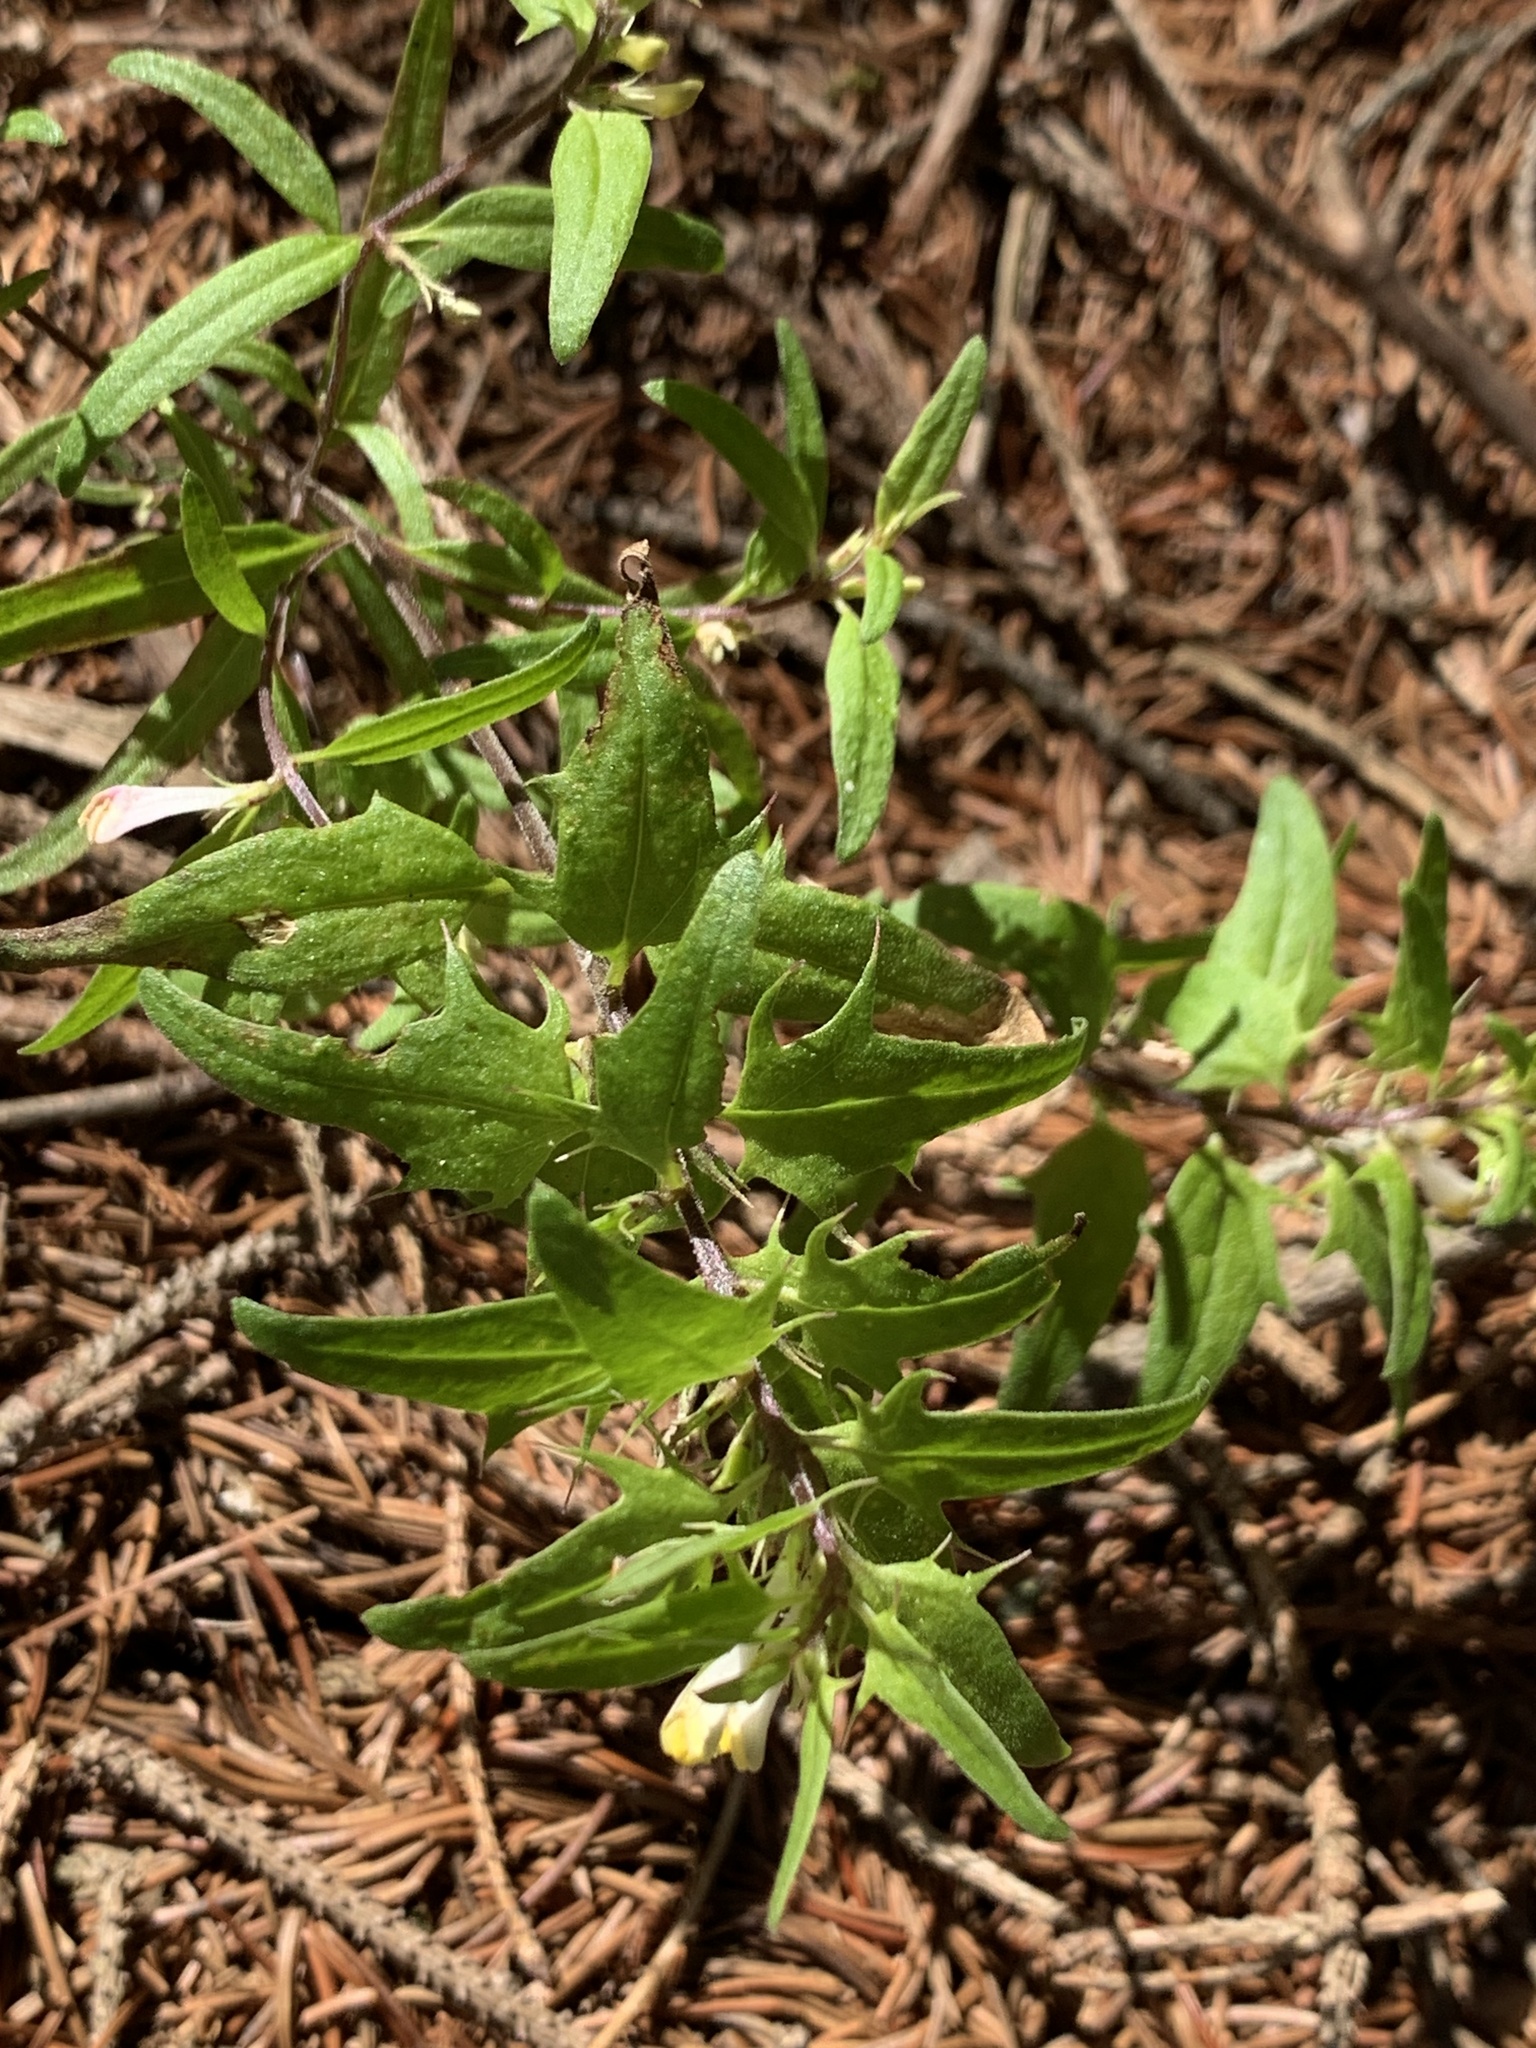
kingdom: Plantae
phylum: Tracheophyta
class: Magnoliopsida
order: Lamiales
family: Orobanchaceae
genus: Melampyrum
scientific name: Melampyrum lineare
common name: American cow-wheat
